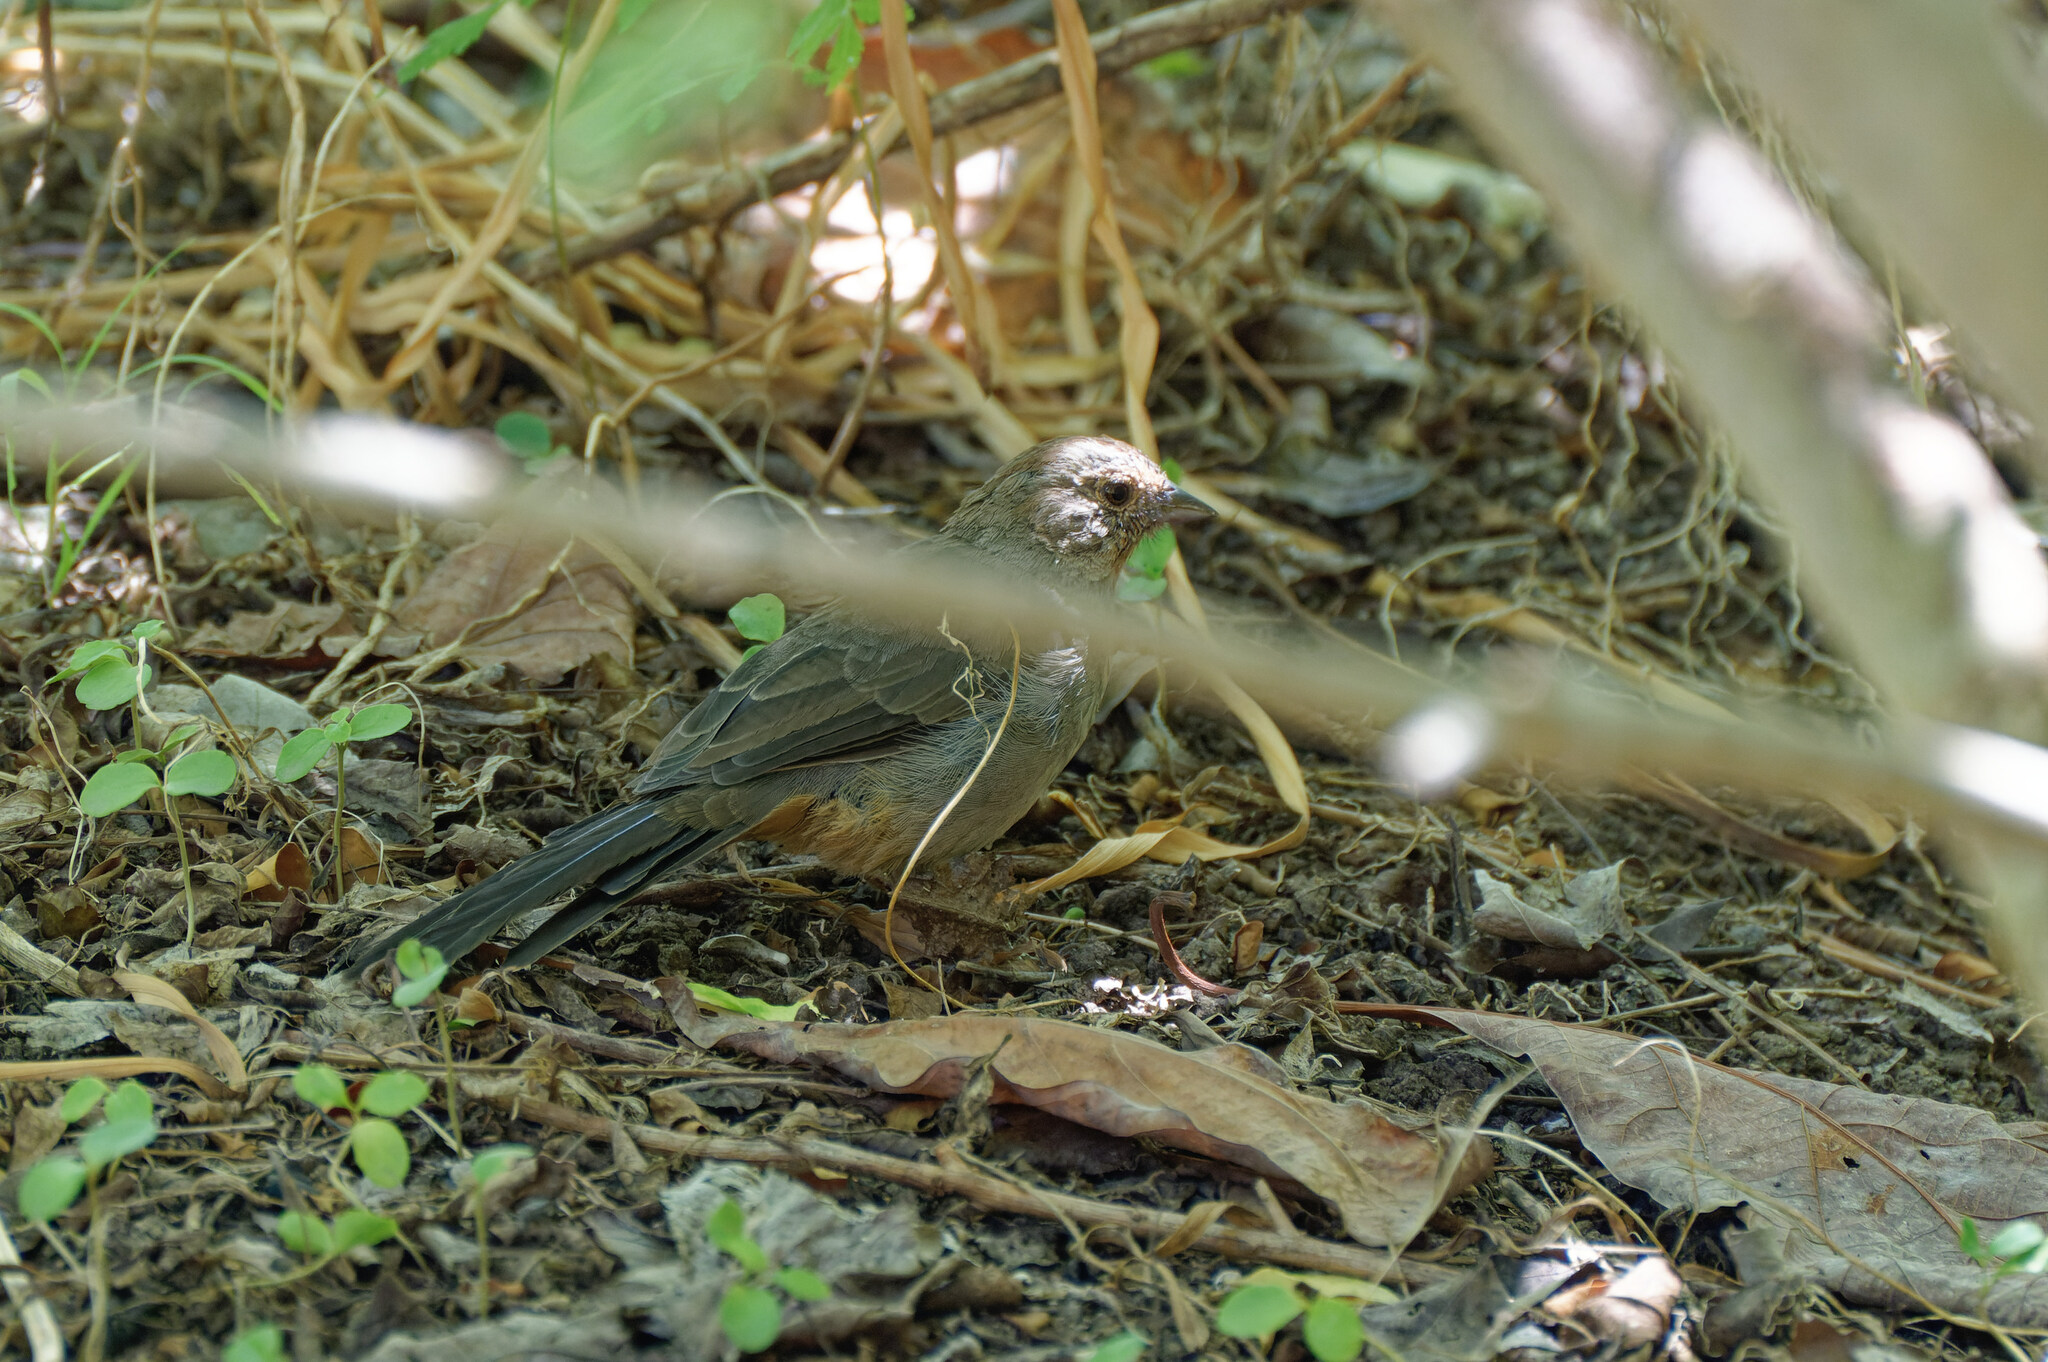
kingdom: Animalia
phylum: Chordata
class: Aves
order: Passeriformes
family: Passerellidae
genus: Melozone
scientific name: Melozone crissalis
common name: California towhee
